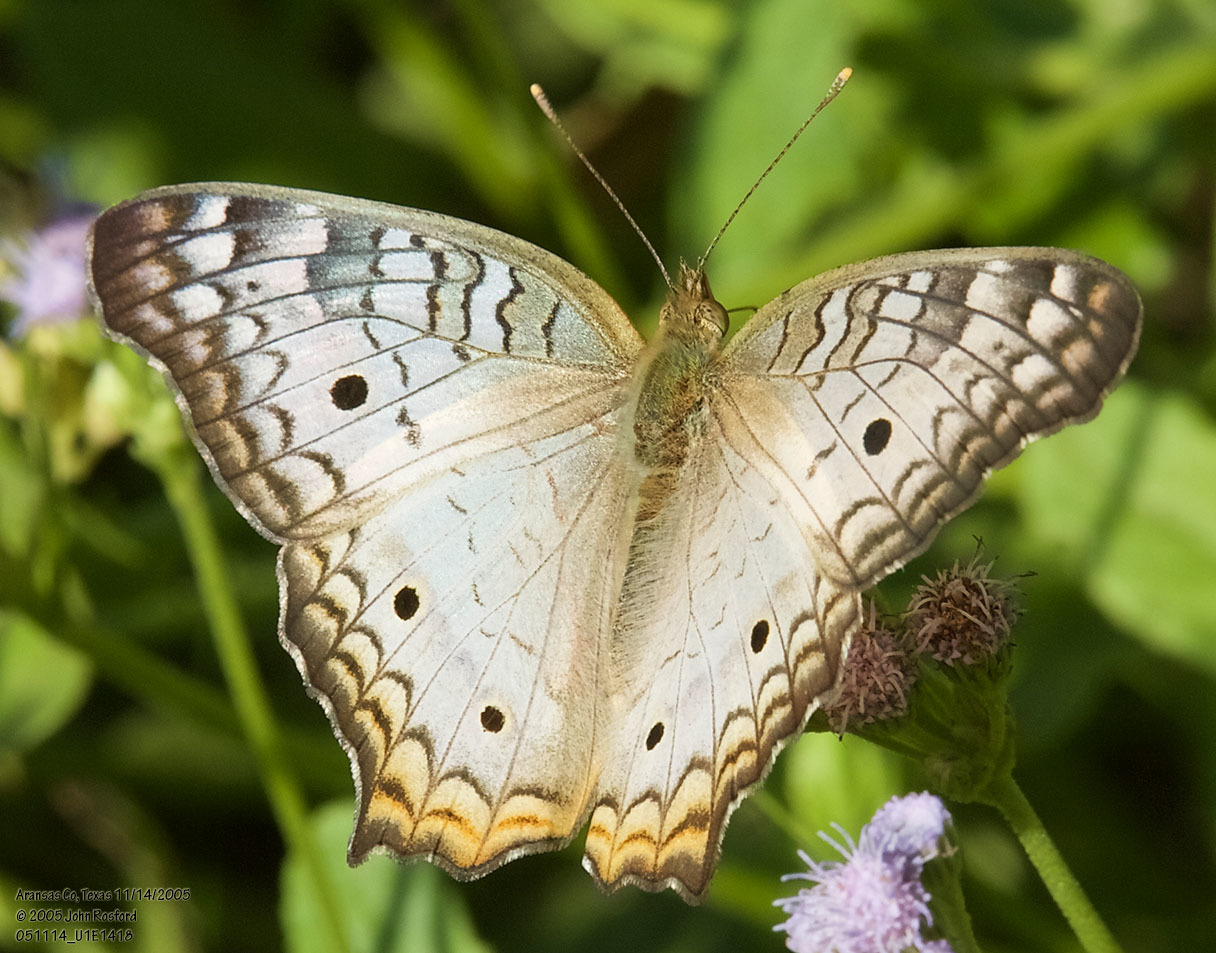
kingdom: Animalia
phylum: Arthropoda
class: Insecta
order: Lepidoptera
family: Nymphalidae
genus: Anartia
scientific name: Anartia jatrophae
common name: White peacock
